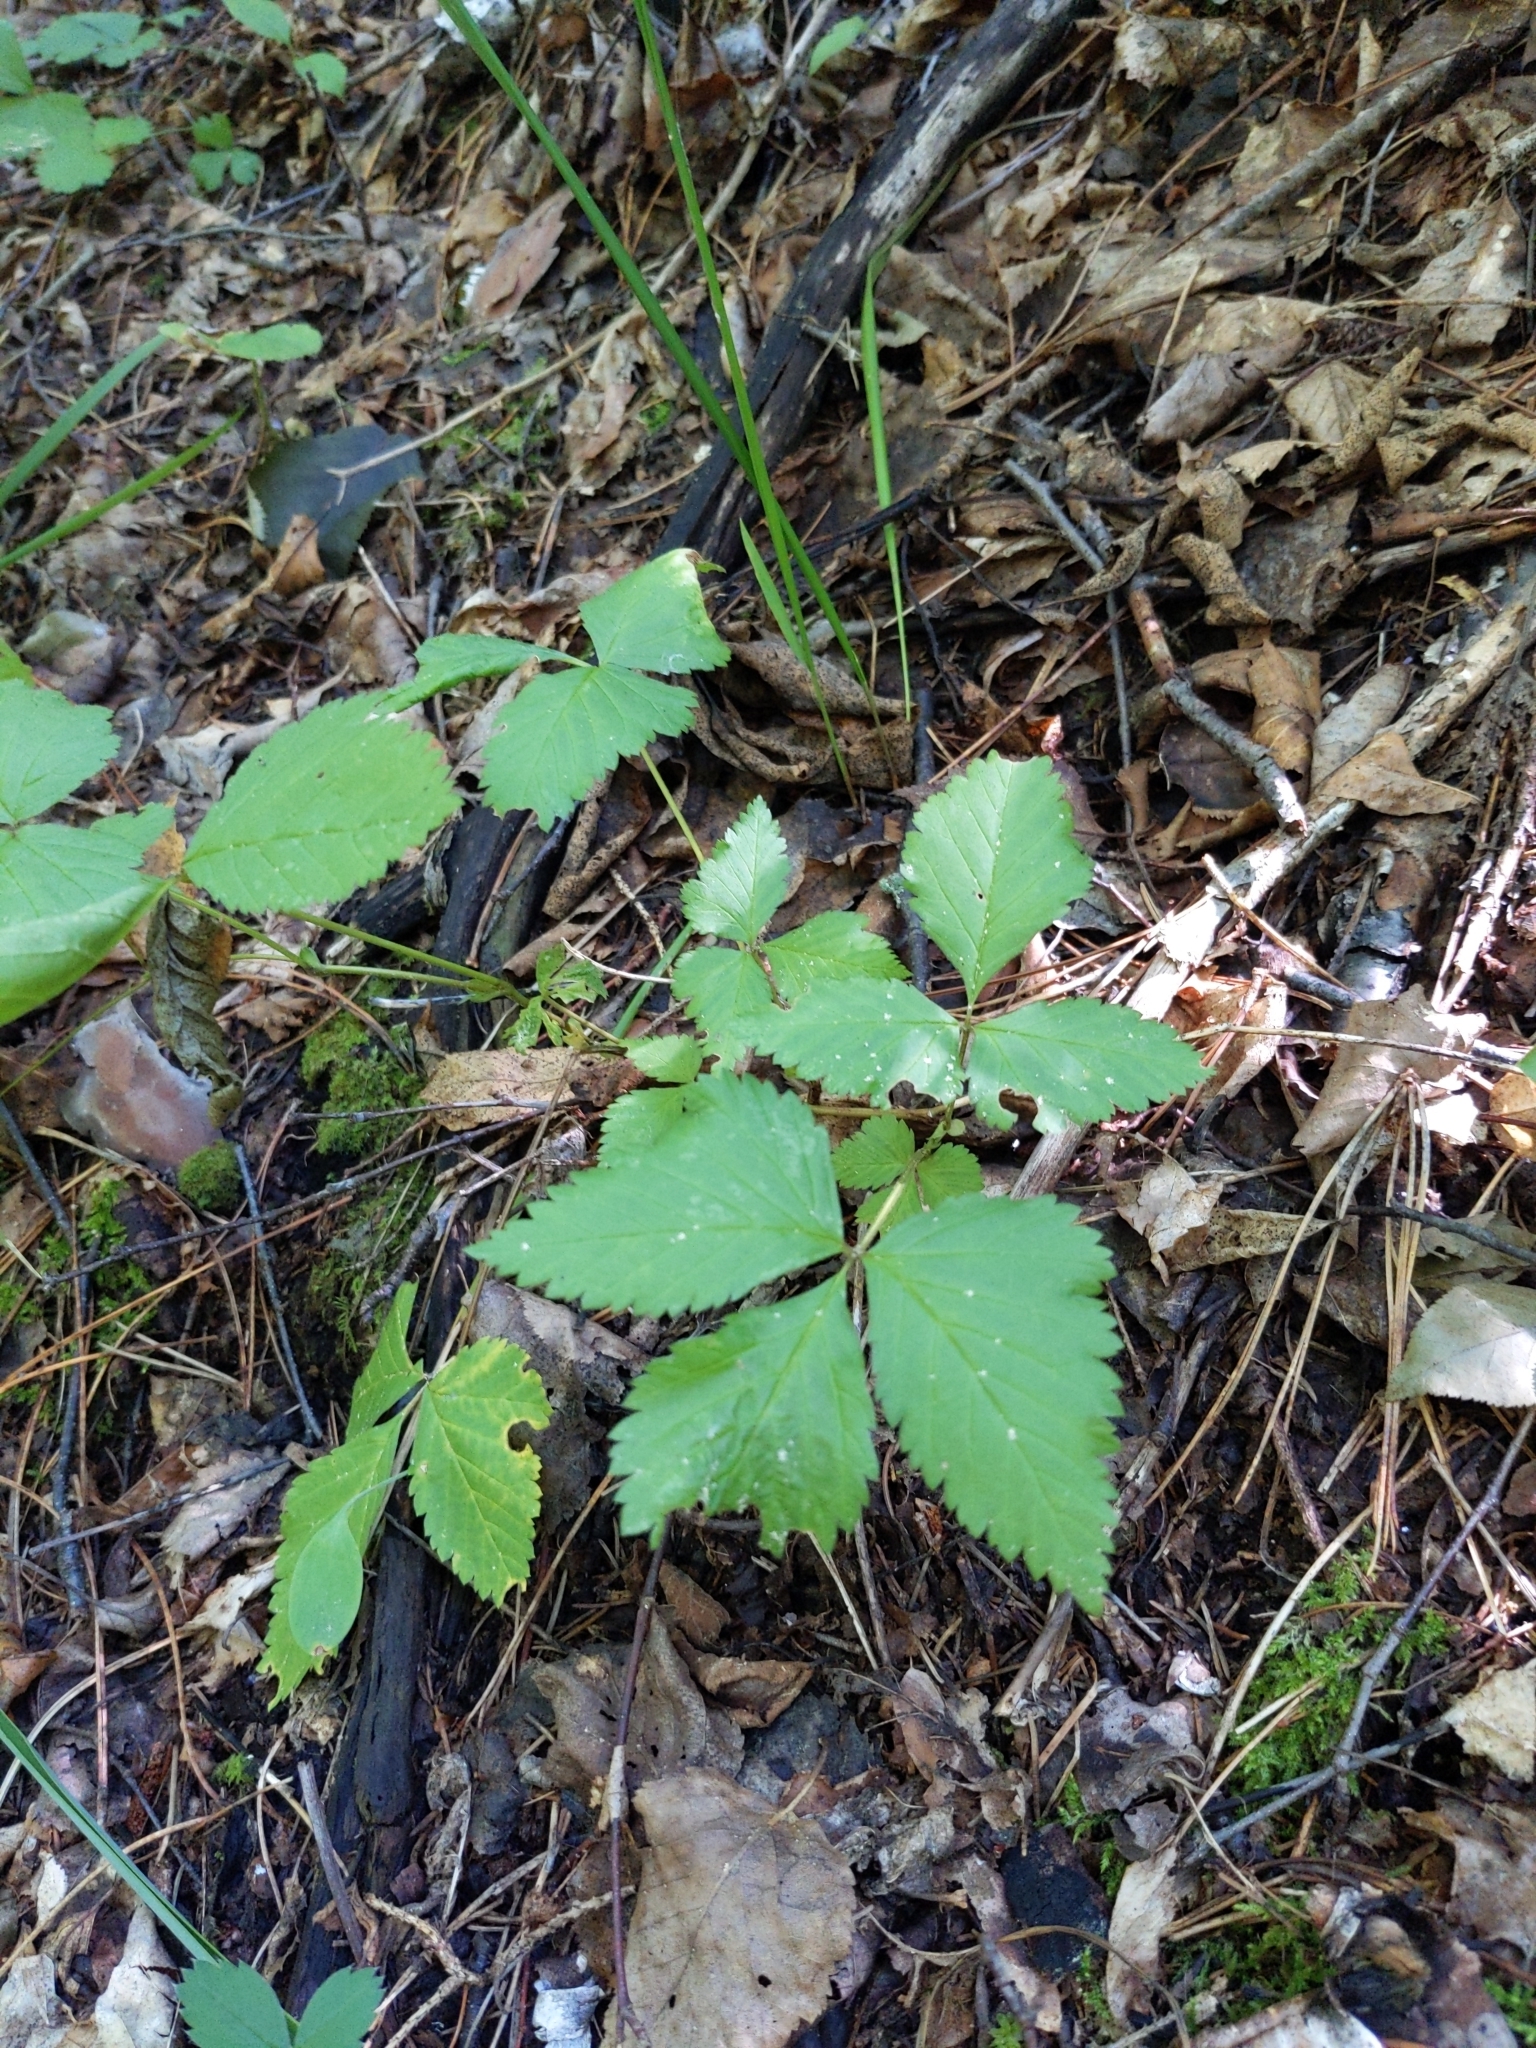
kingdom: Plantae
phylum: Tracheophyta
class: Magnoliopsida
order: Rosales
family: Rosaceae
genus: Rubus
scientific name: Rubus pubescens
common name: Dwarf raspberry
